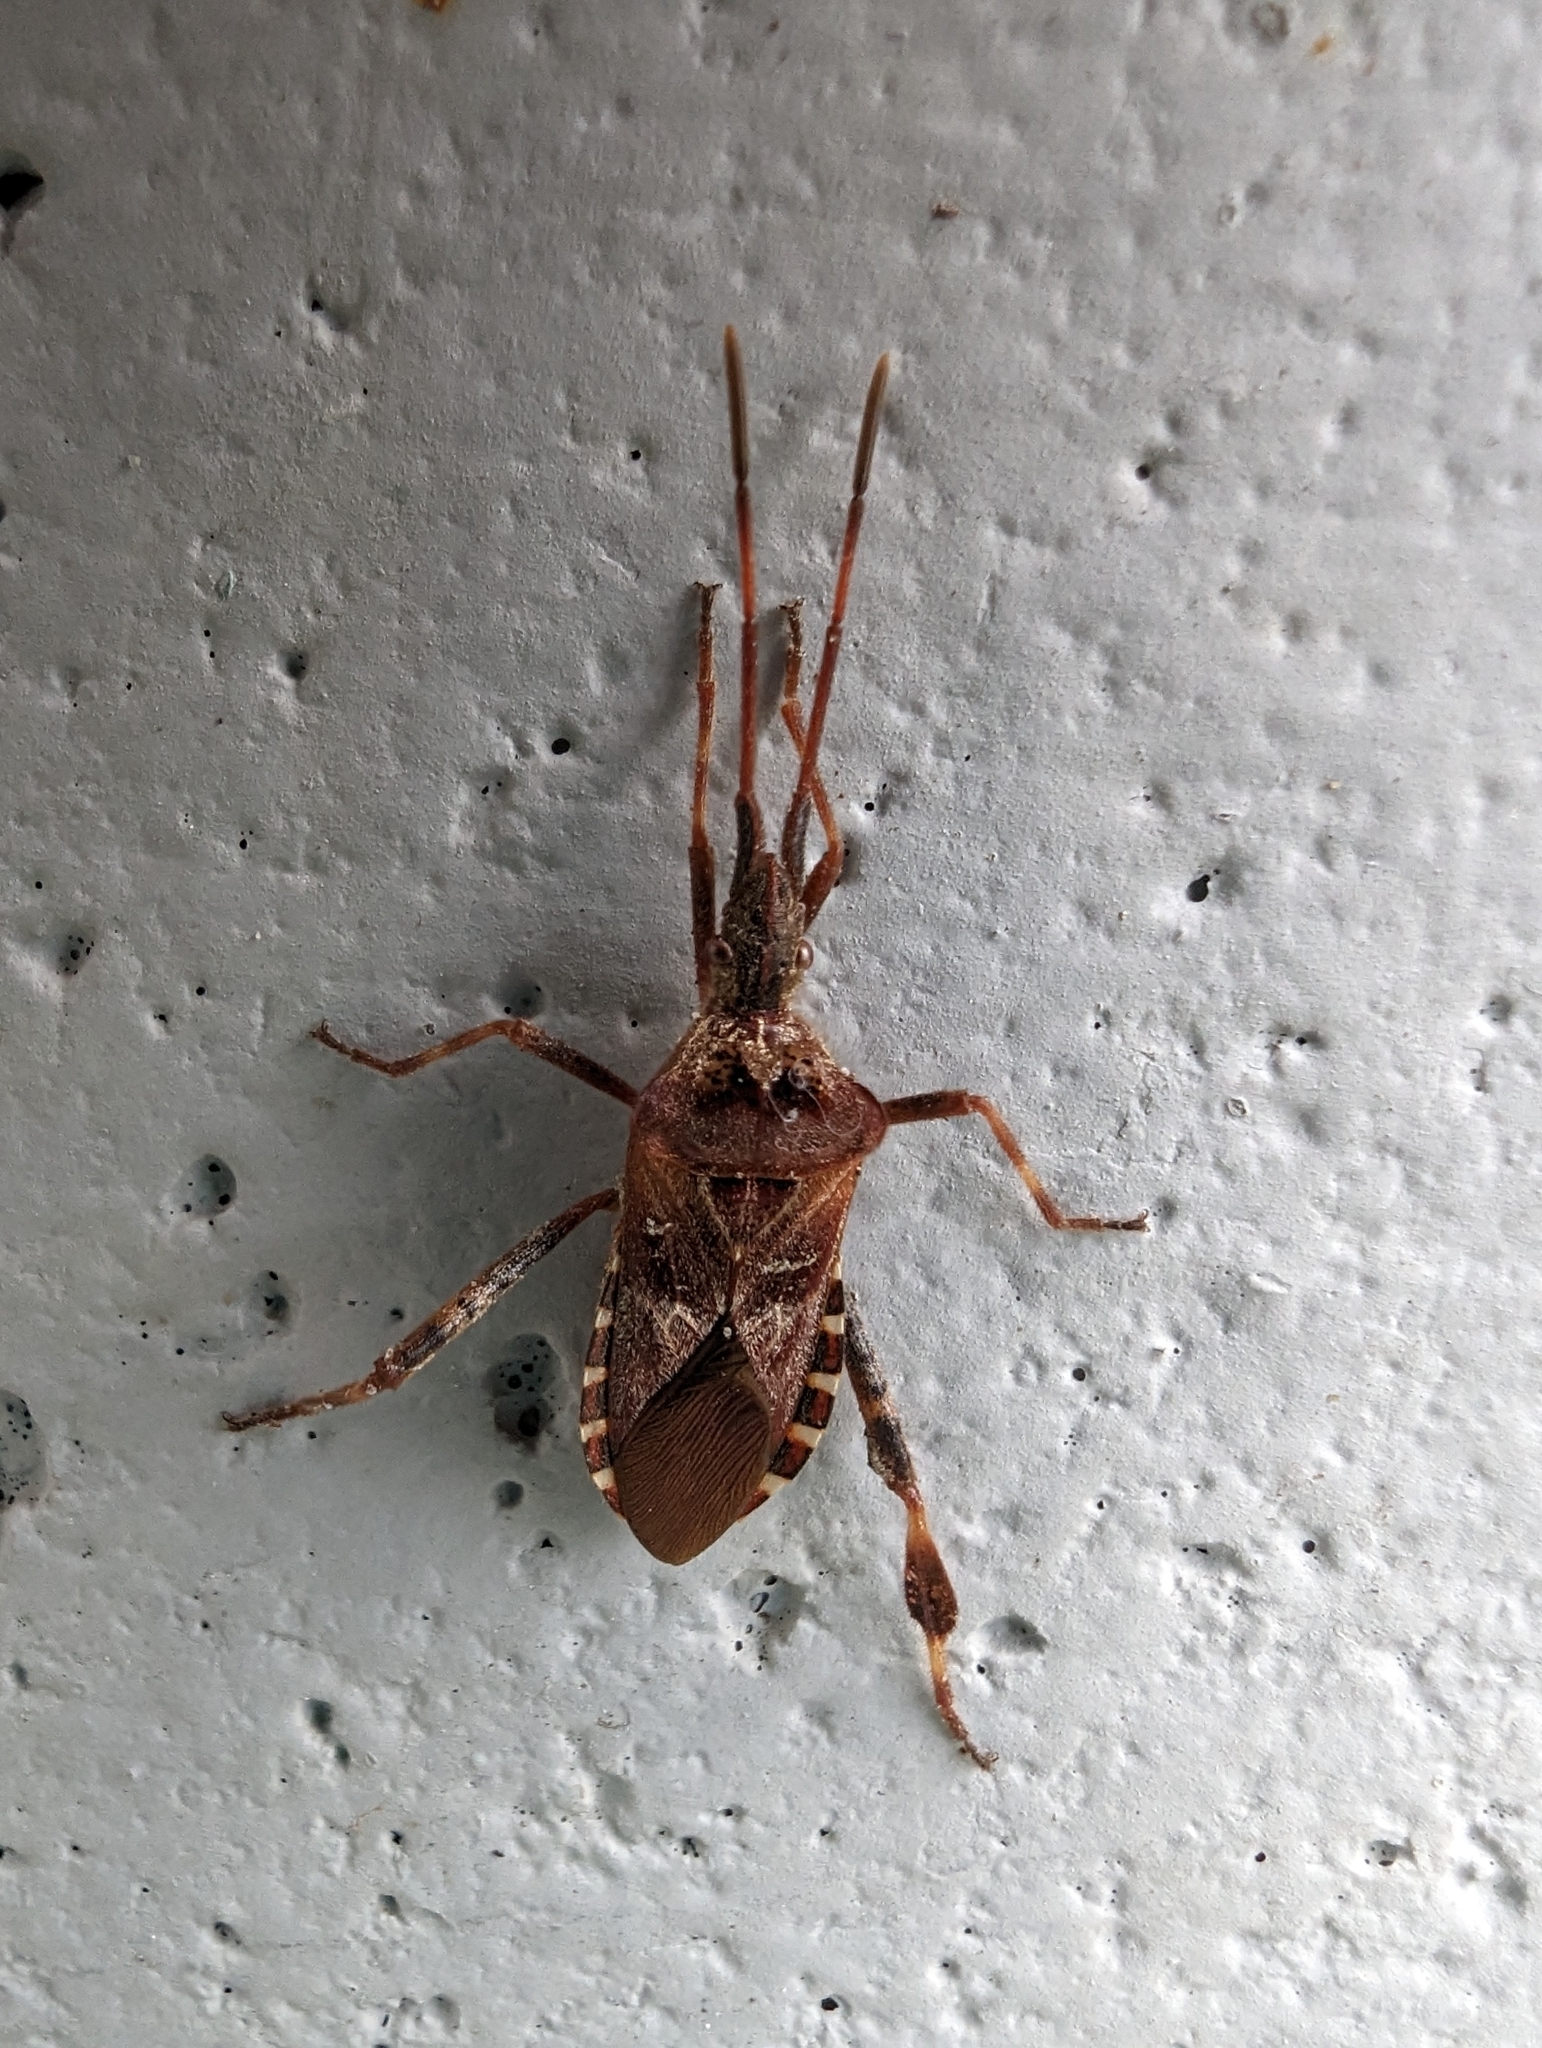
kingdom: Animalia
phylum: Arthropoda
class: Insecta
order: Hemiptera
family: Coreidae
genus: Leptoglossus
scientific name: Leptoglossus occidentalis
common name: Western conifer-seed bug
